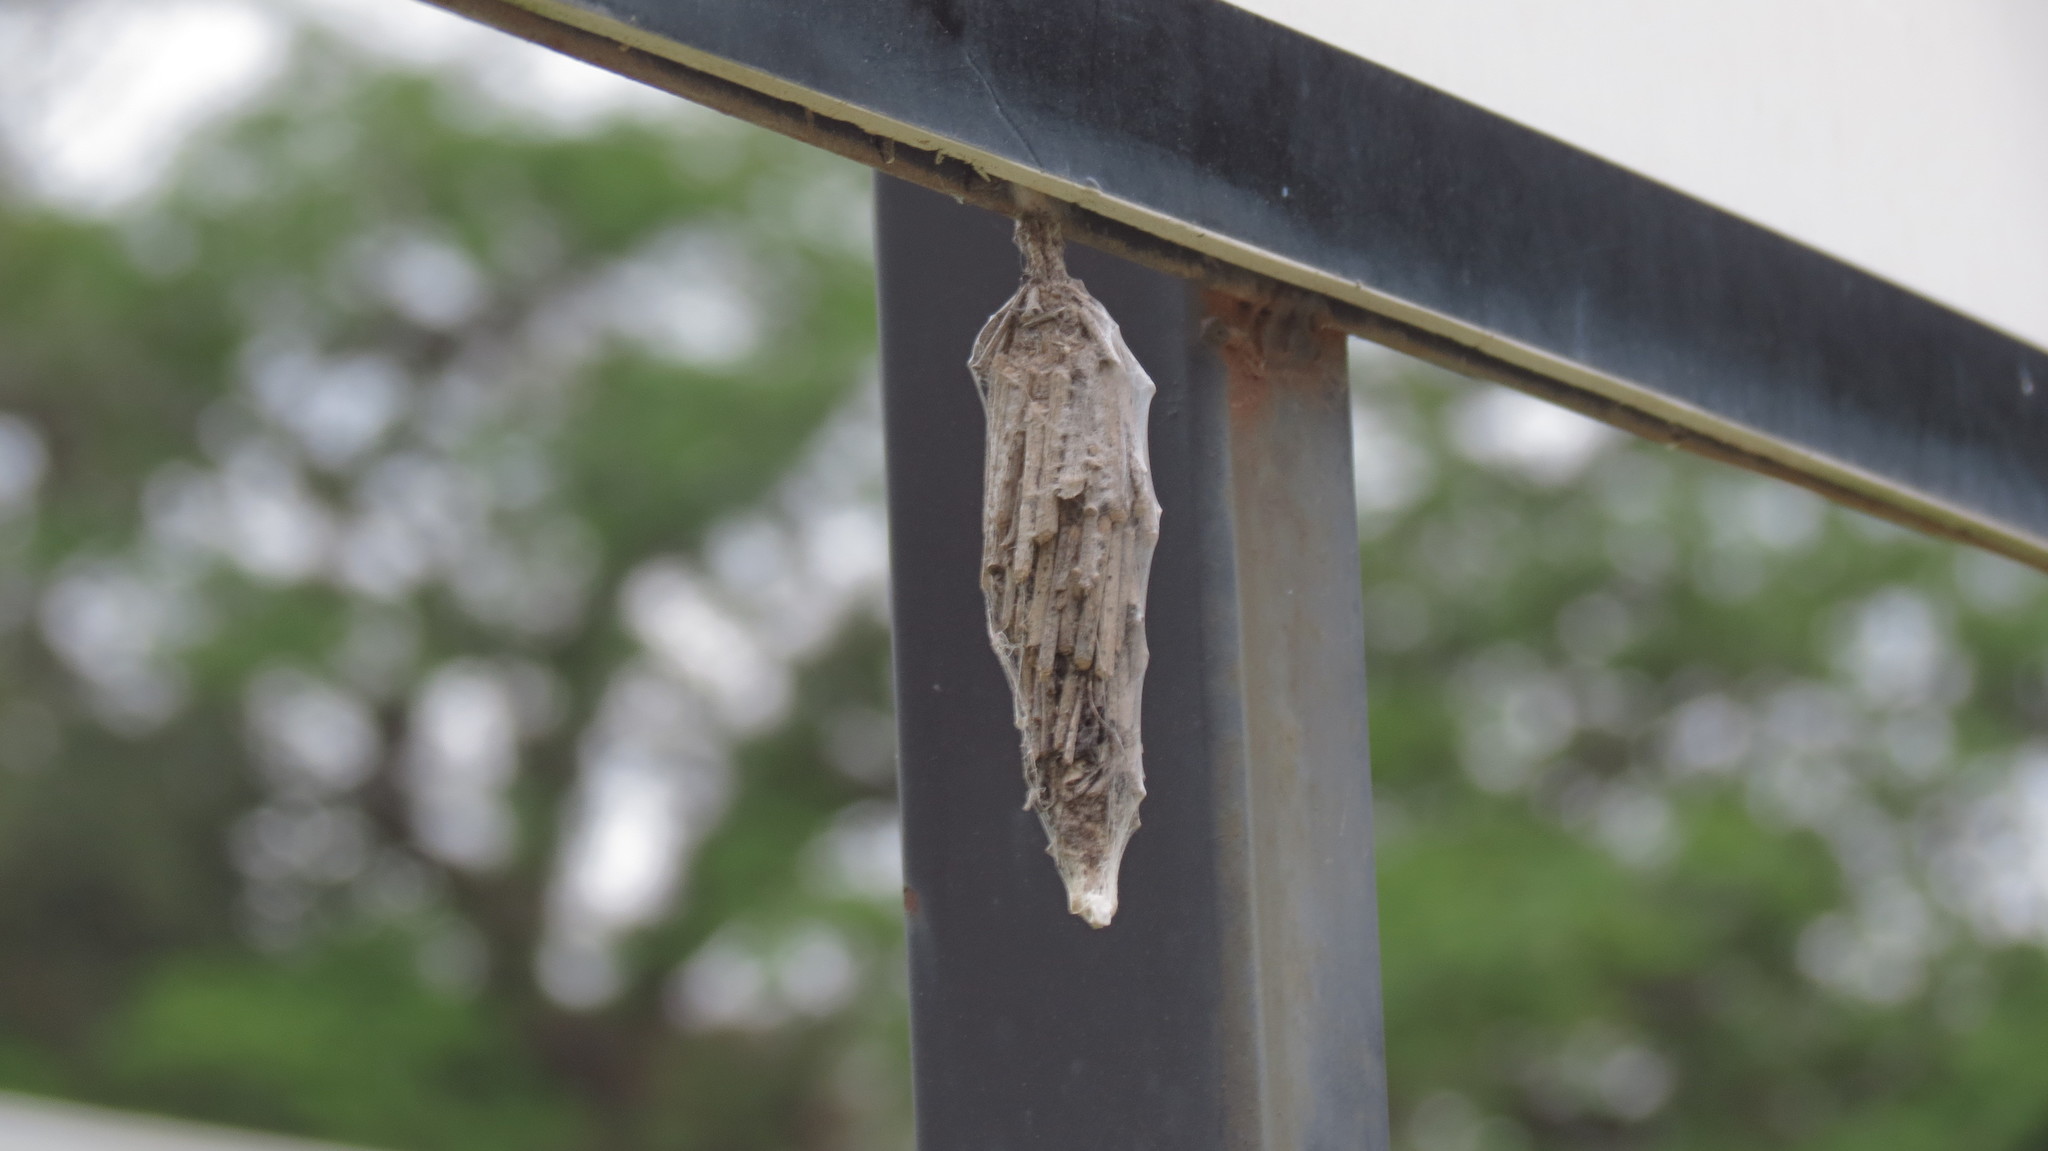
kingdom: Animalia
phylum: Arthropoda
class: Insecta
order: Lepidoptera
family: Psychidae
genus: Oiketicus
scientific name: Oiketicus
